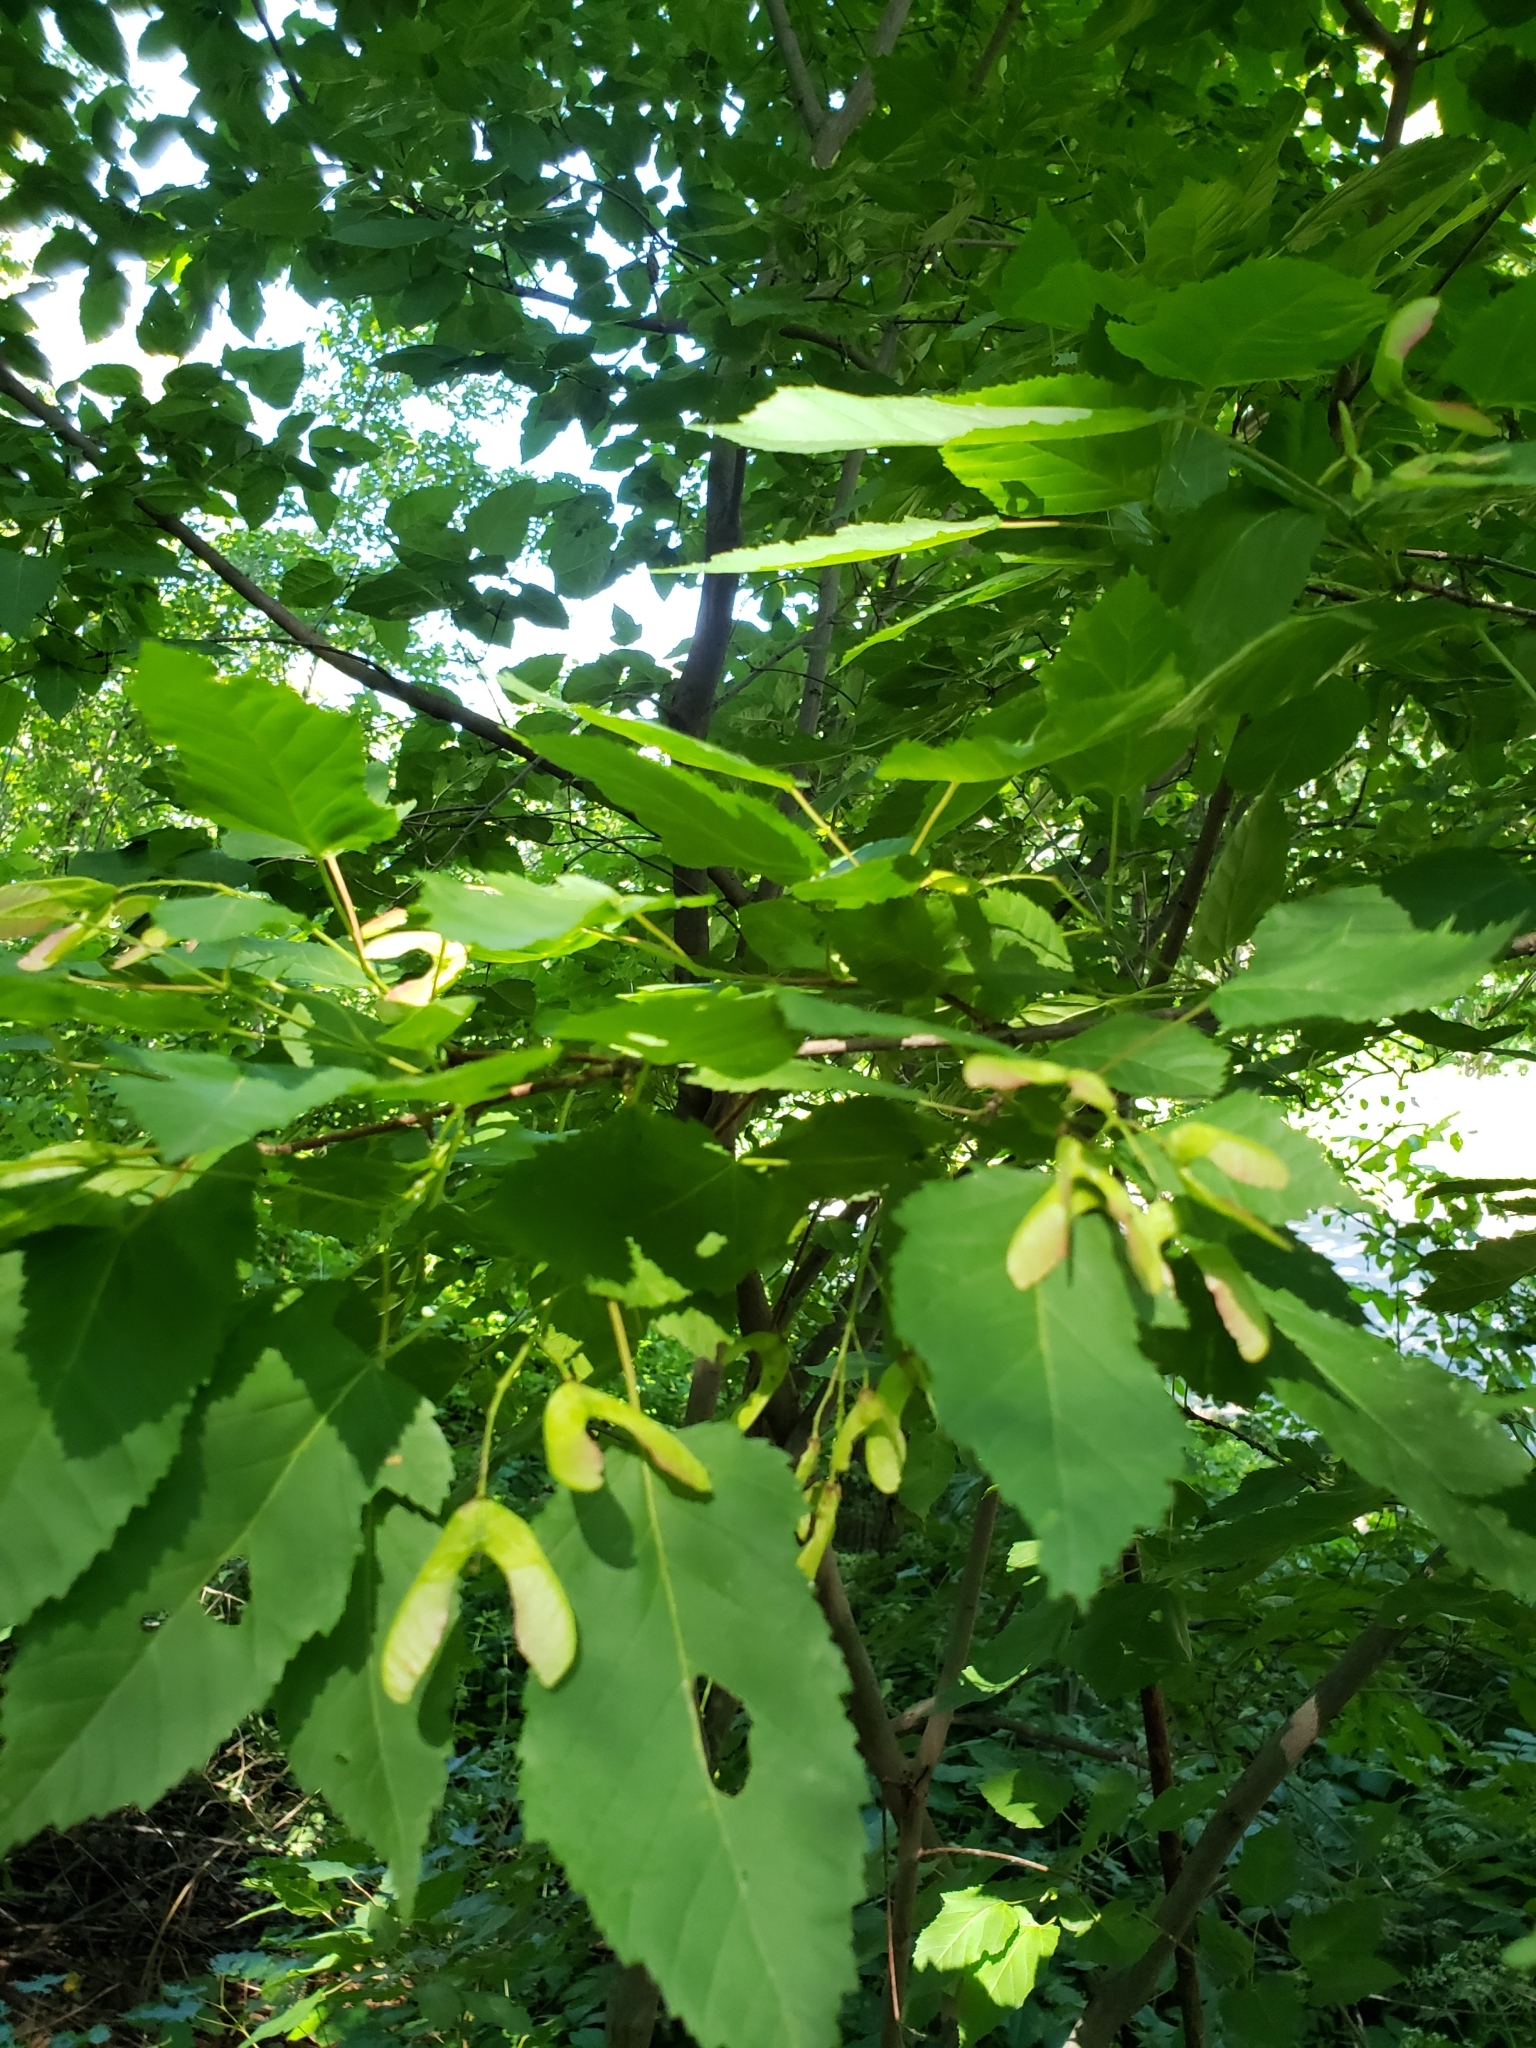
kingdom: Plantae
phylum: Tracheophyta
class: Magnoliopsida
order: Sapindales
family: Sapindaceae
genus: Acer
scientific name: Acer tataricum
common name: Tartar maple
